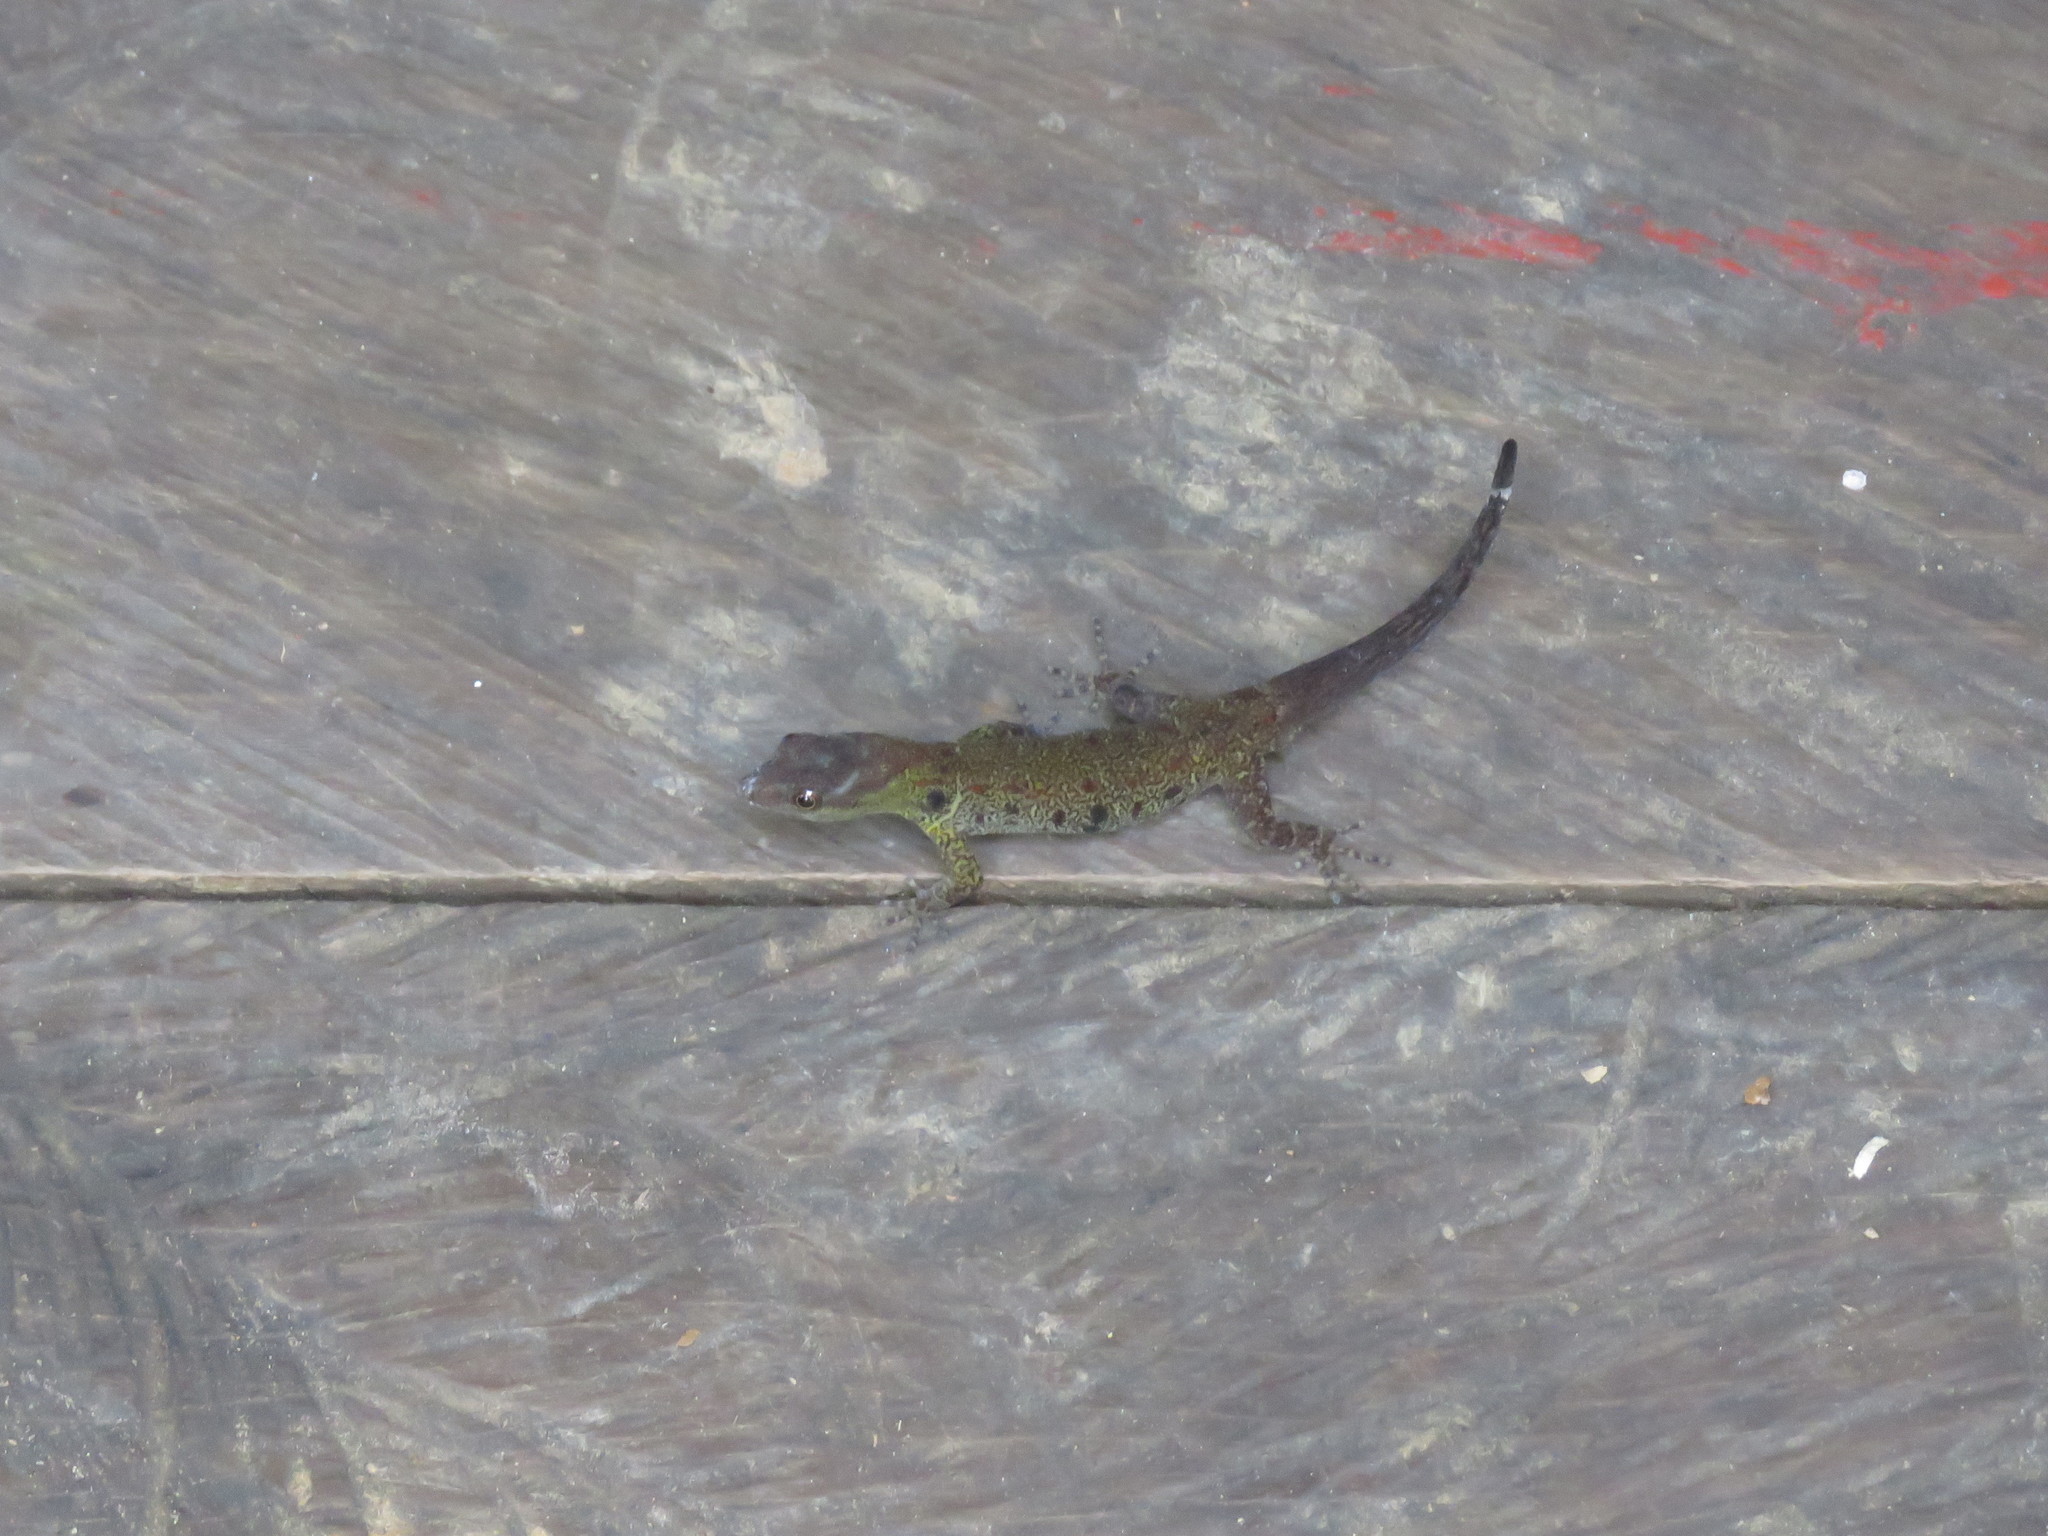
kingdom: Animalia
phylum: Chordata
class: Squamata
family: Sphaerodactylidae
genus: Gonatodes
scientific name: Gonatodes humeralis
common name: South american clawed gecko
